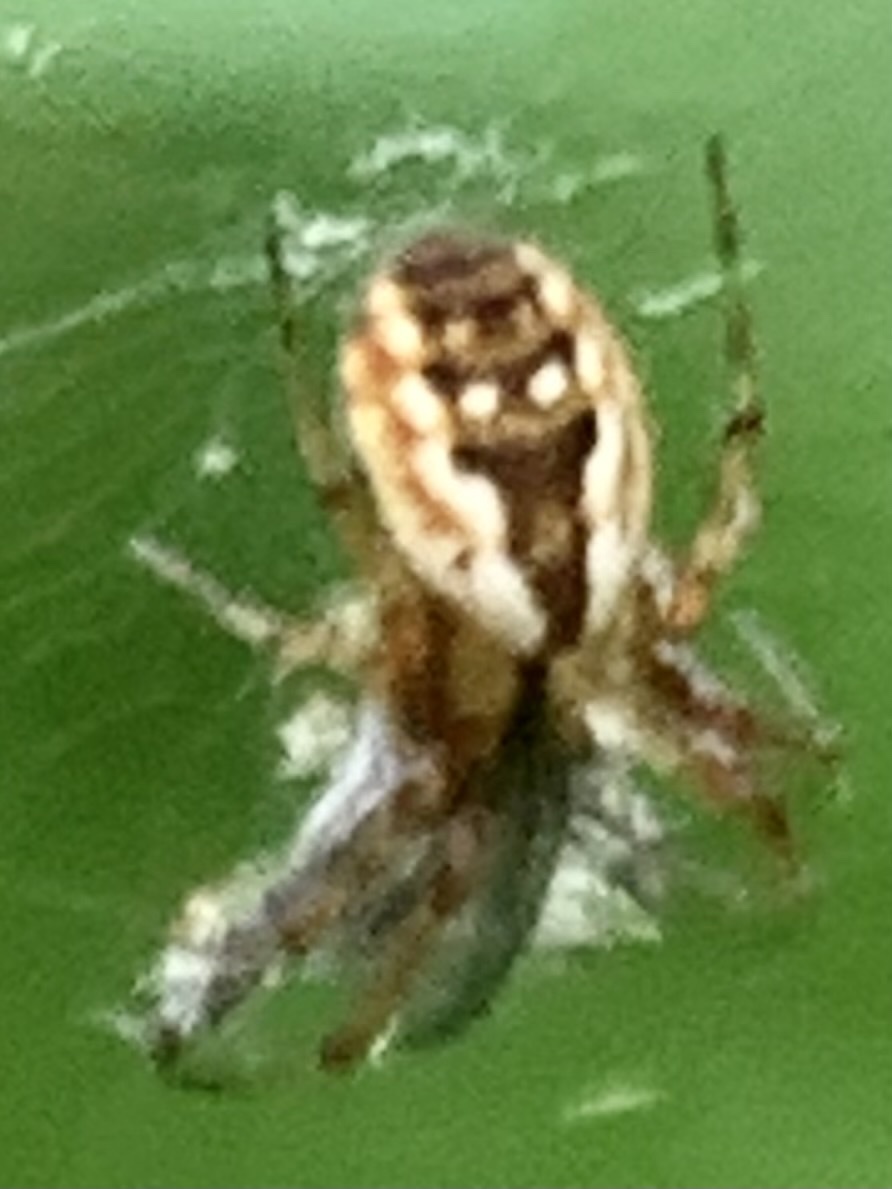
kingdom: Animalia
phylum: Arthropoda
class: Arachnida
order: Araneae
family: Araneidae
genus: Mangora
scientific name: Mangora placida
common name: Tuft-legged orbweaver
